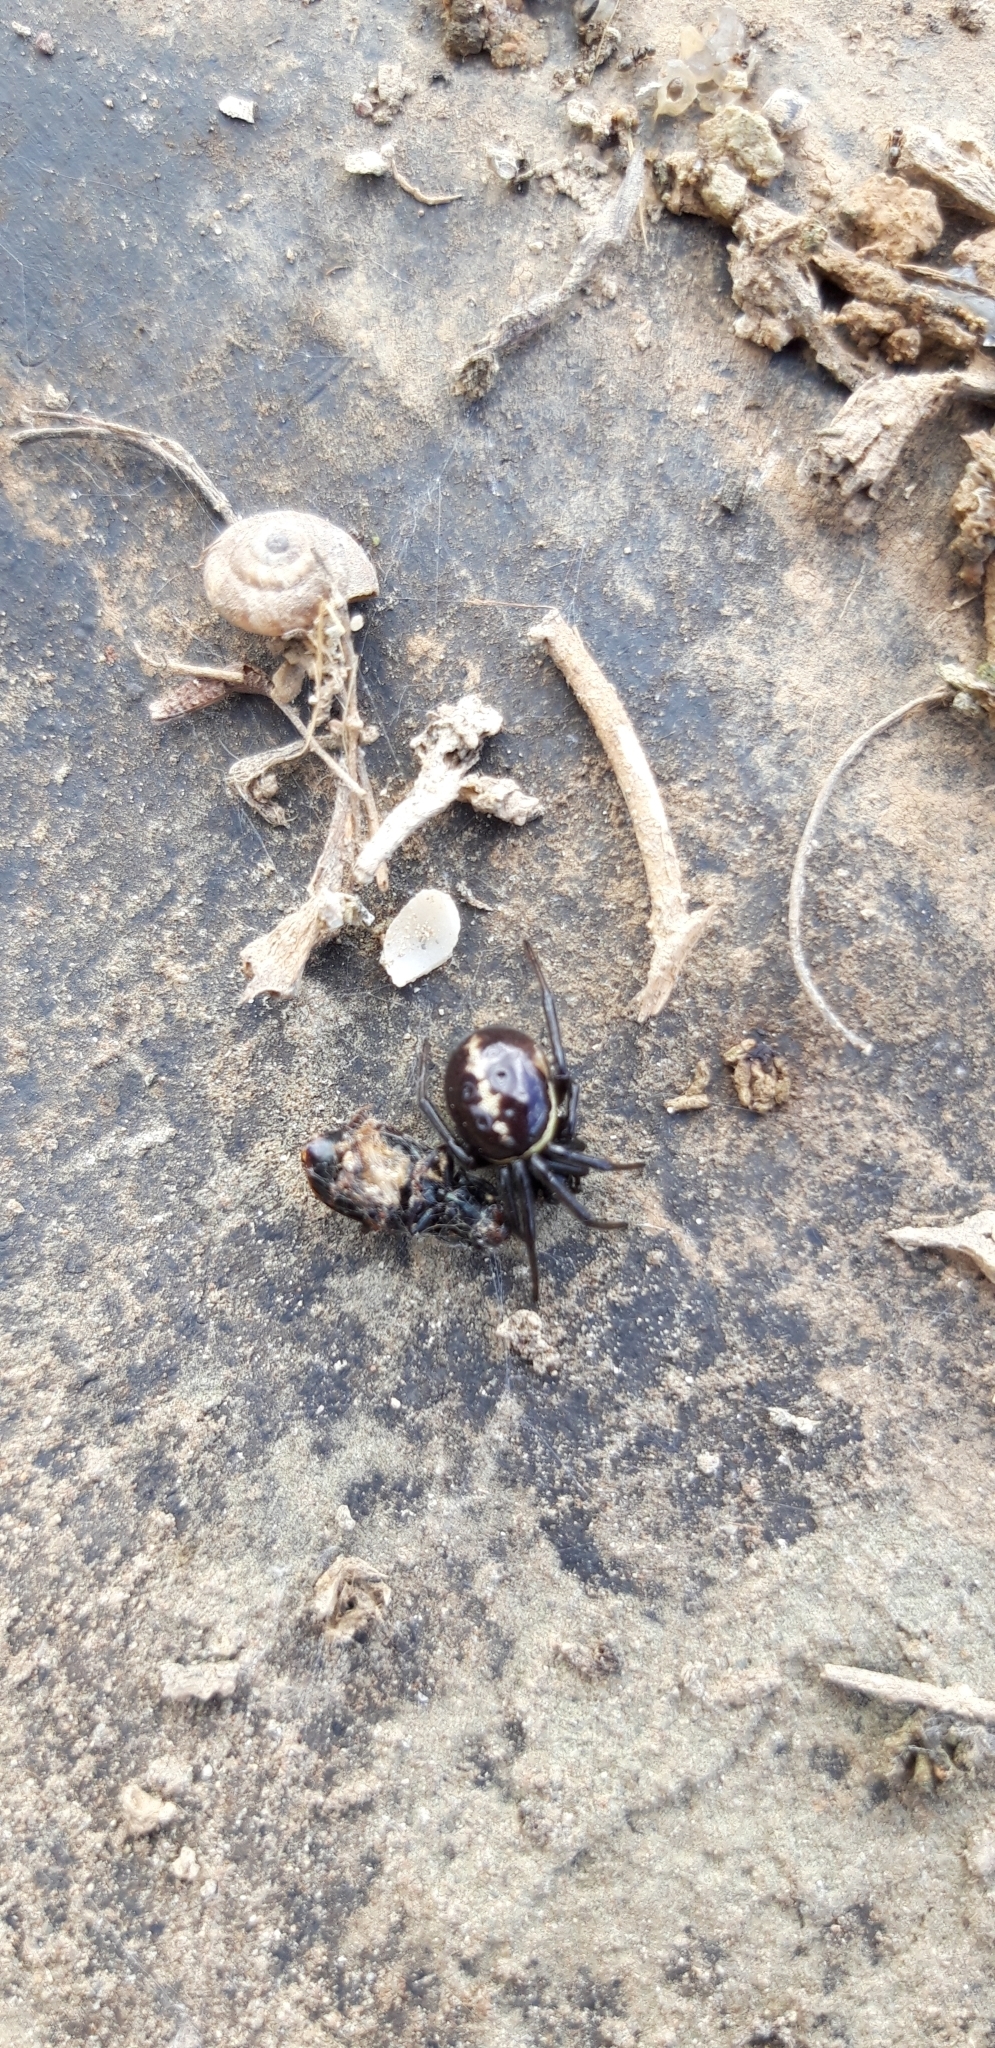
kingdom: Animalia
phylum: Arthropoda
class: Arachnida
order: Araneae
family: Theridiidae
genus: Steatoda
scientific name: Steatoda paykulliana
